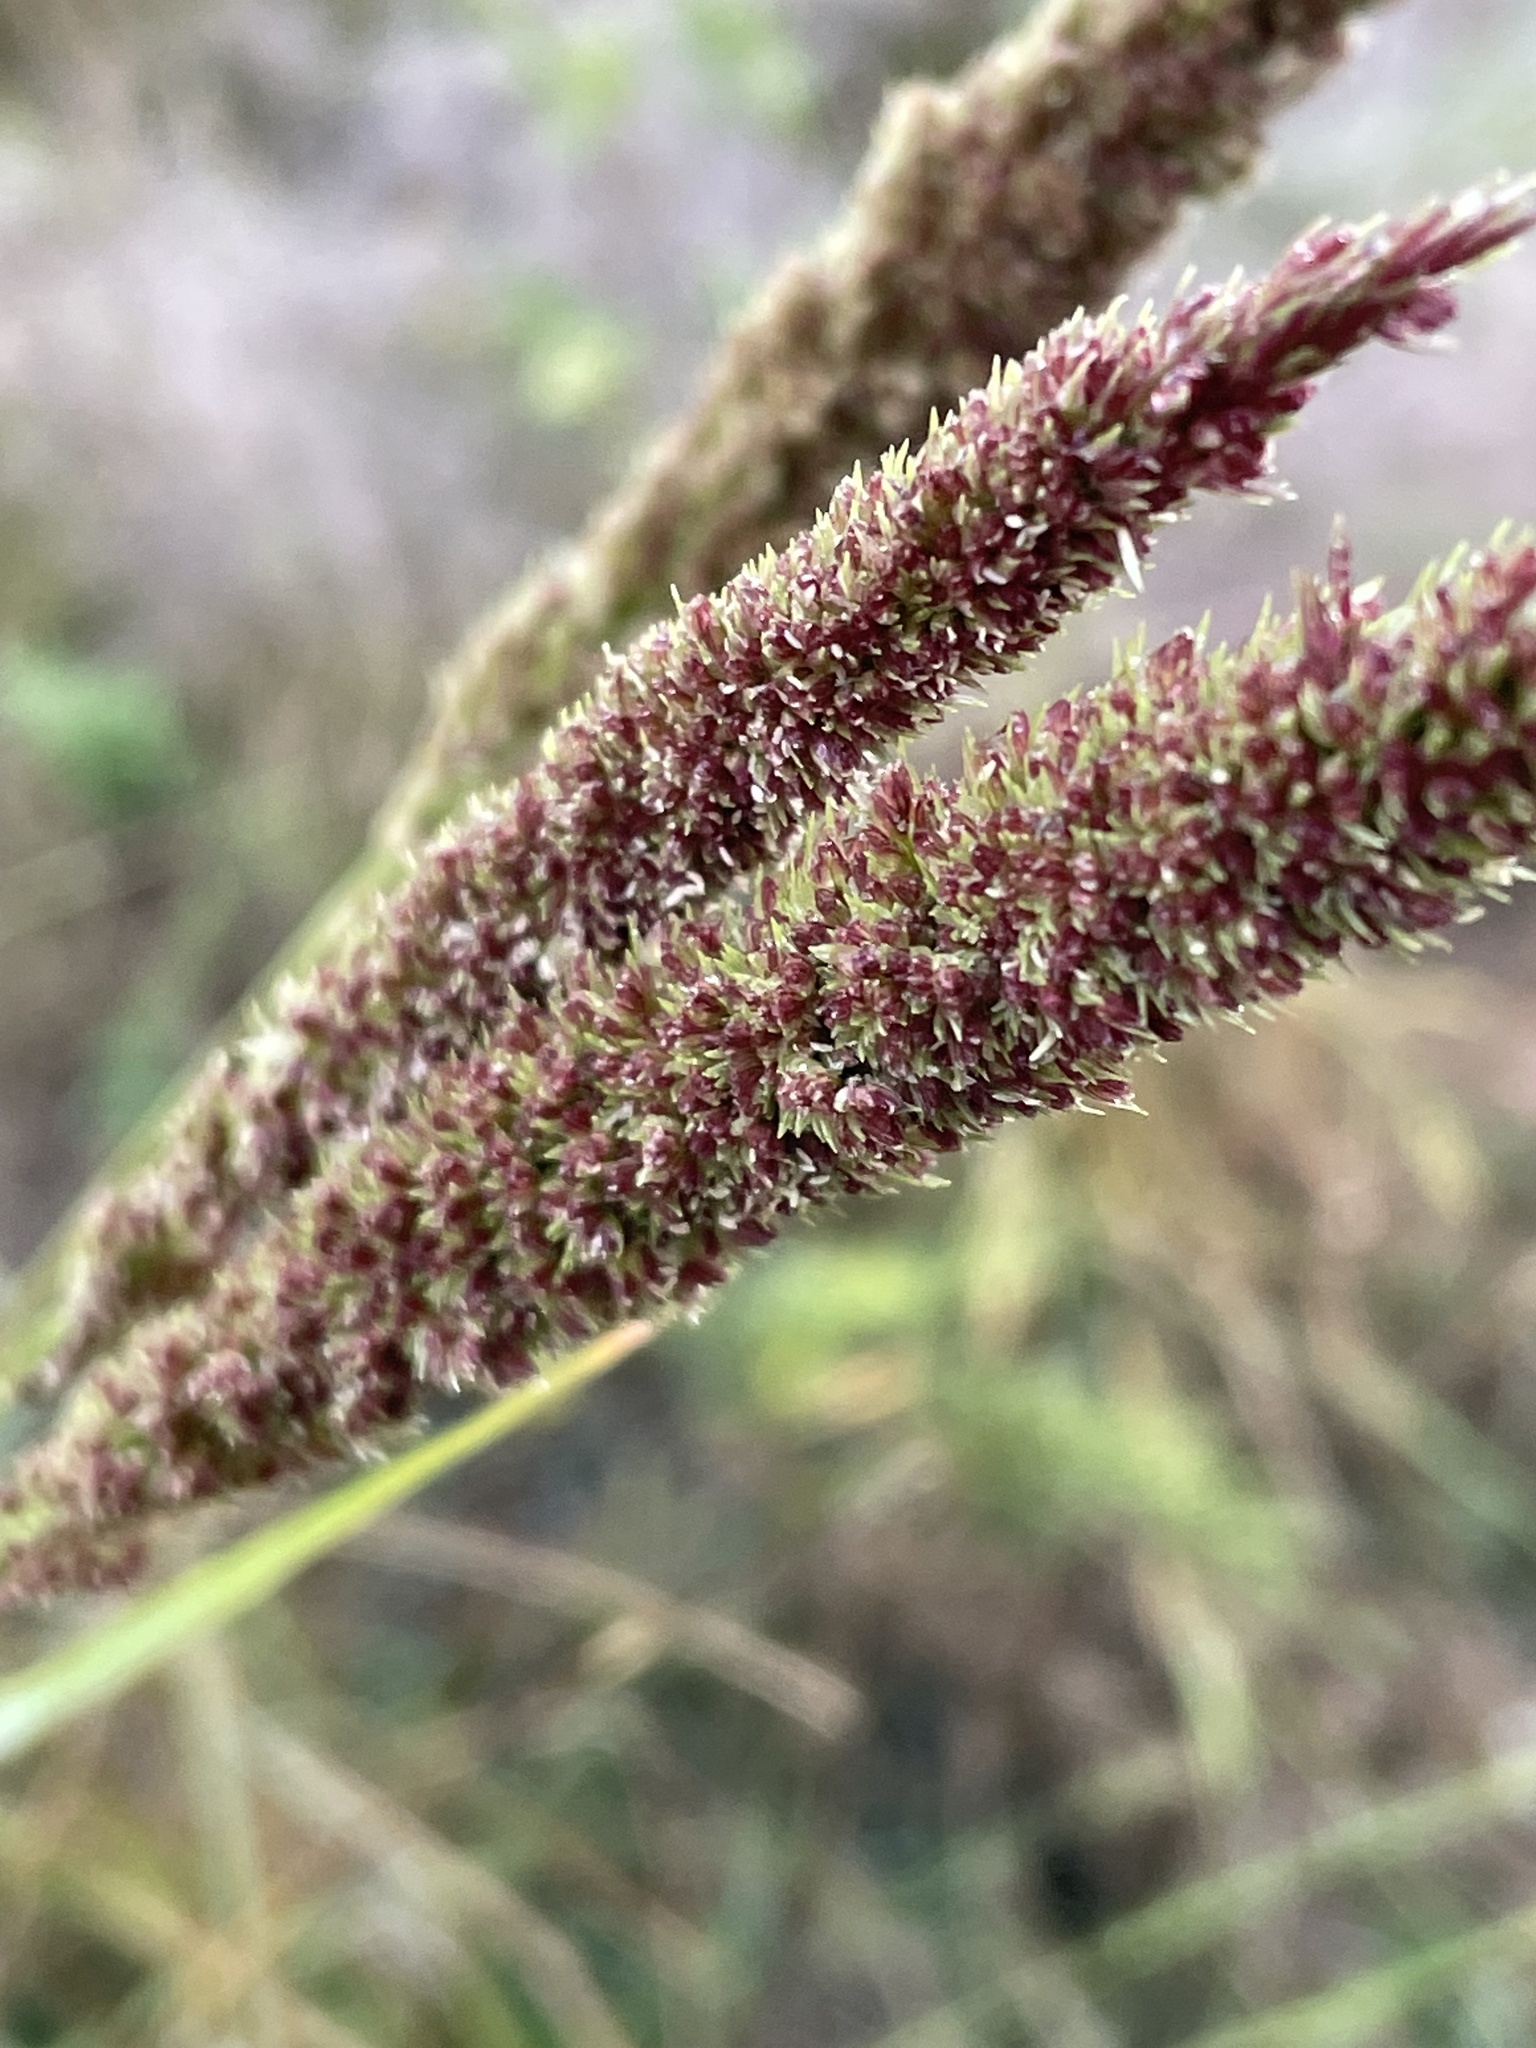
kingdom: Plantae
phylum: Tracheophyta
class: Liliopsida
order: Poales
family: Poaceae
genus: Tridens
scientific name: Tridens strictus
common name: Long-spike tridens
